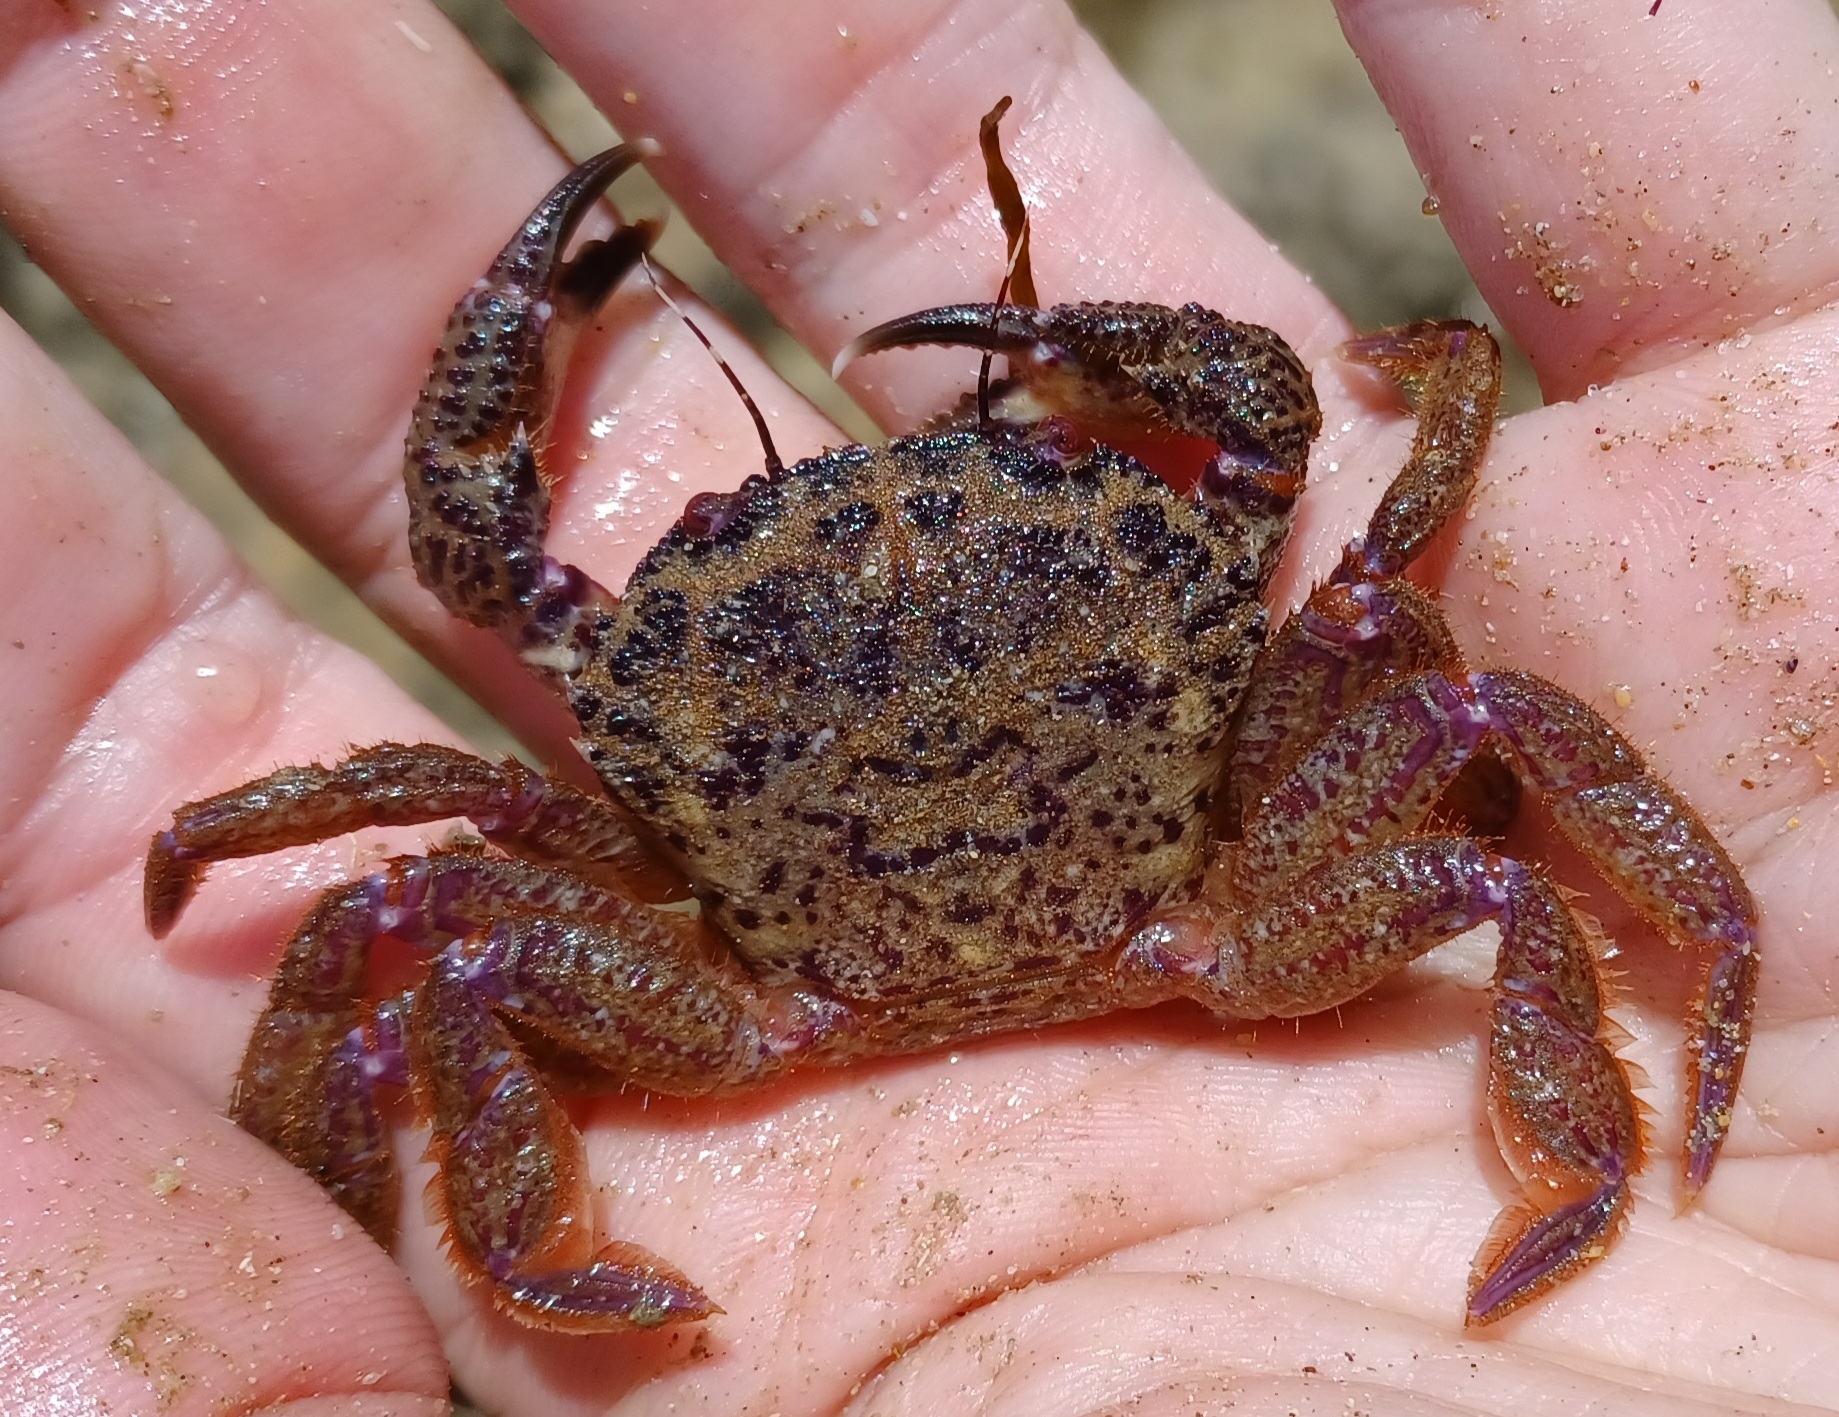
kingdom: Animalia
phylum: Arthropoda
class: Malacostraca
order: Decapoda
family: Geryonidae
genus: Nectocarcinus
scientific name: Nectocarcinus tuberculosus
